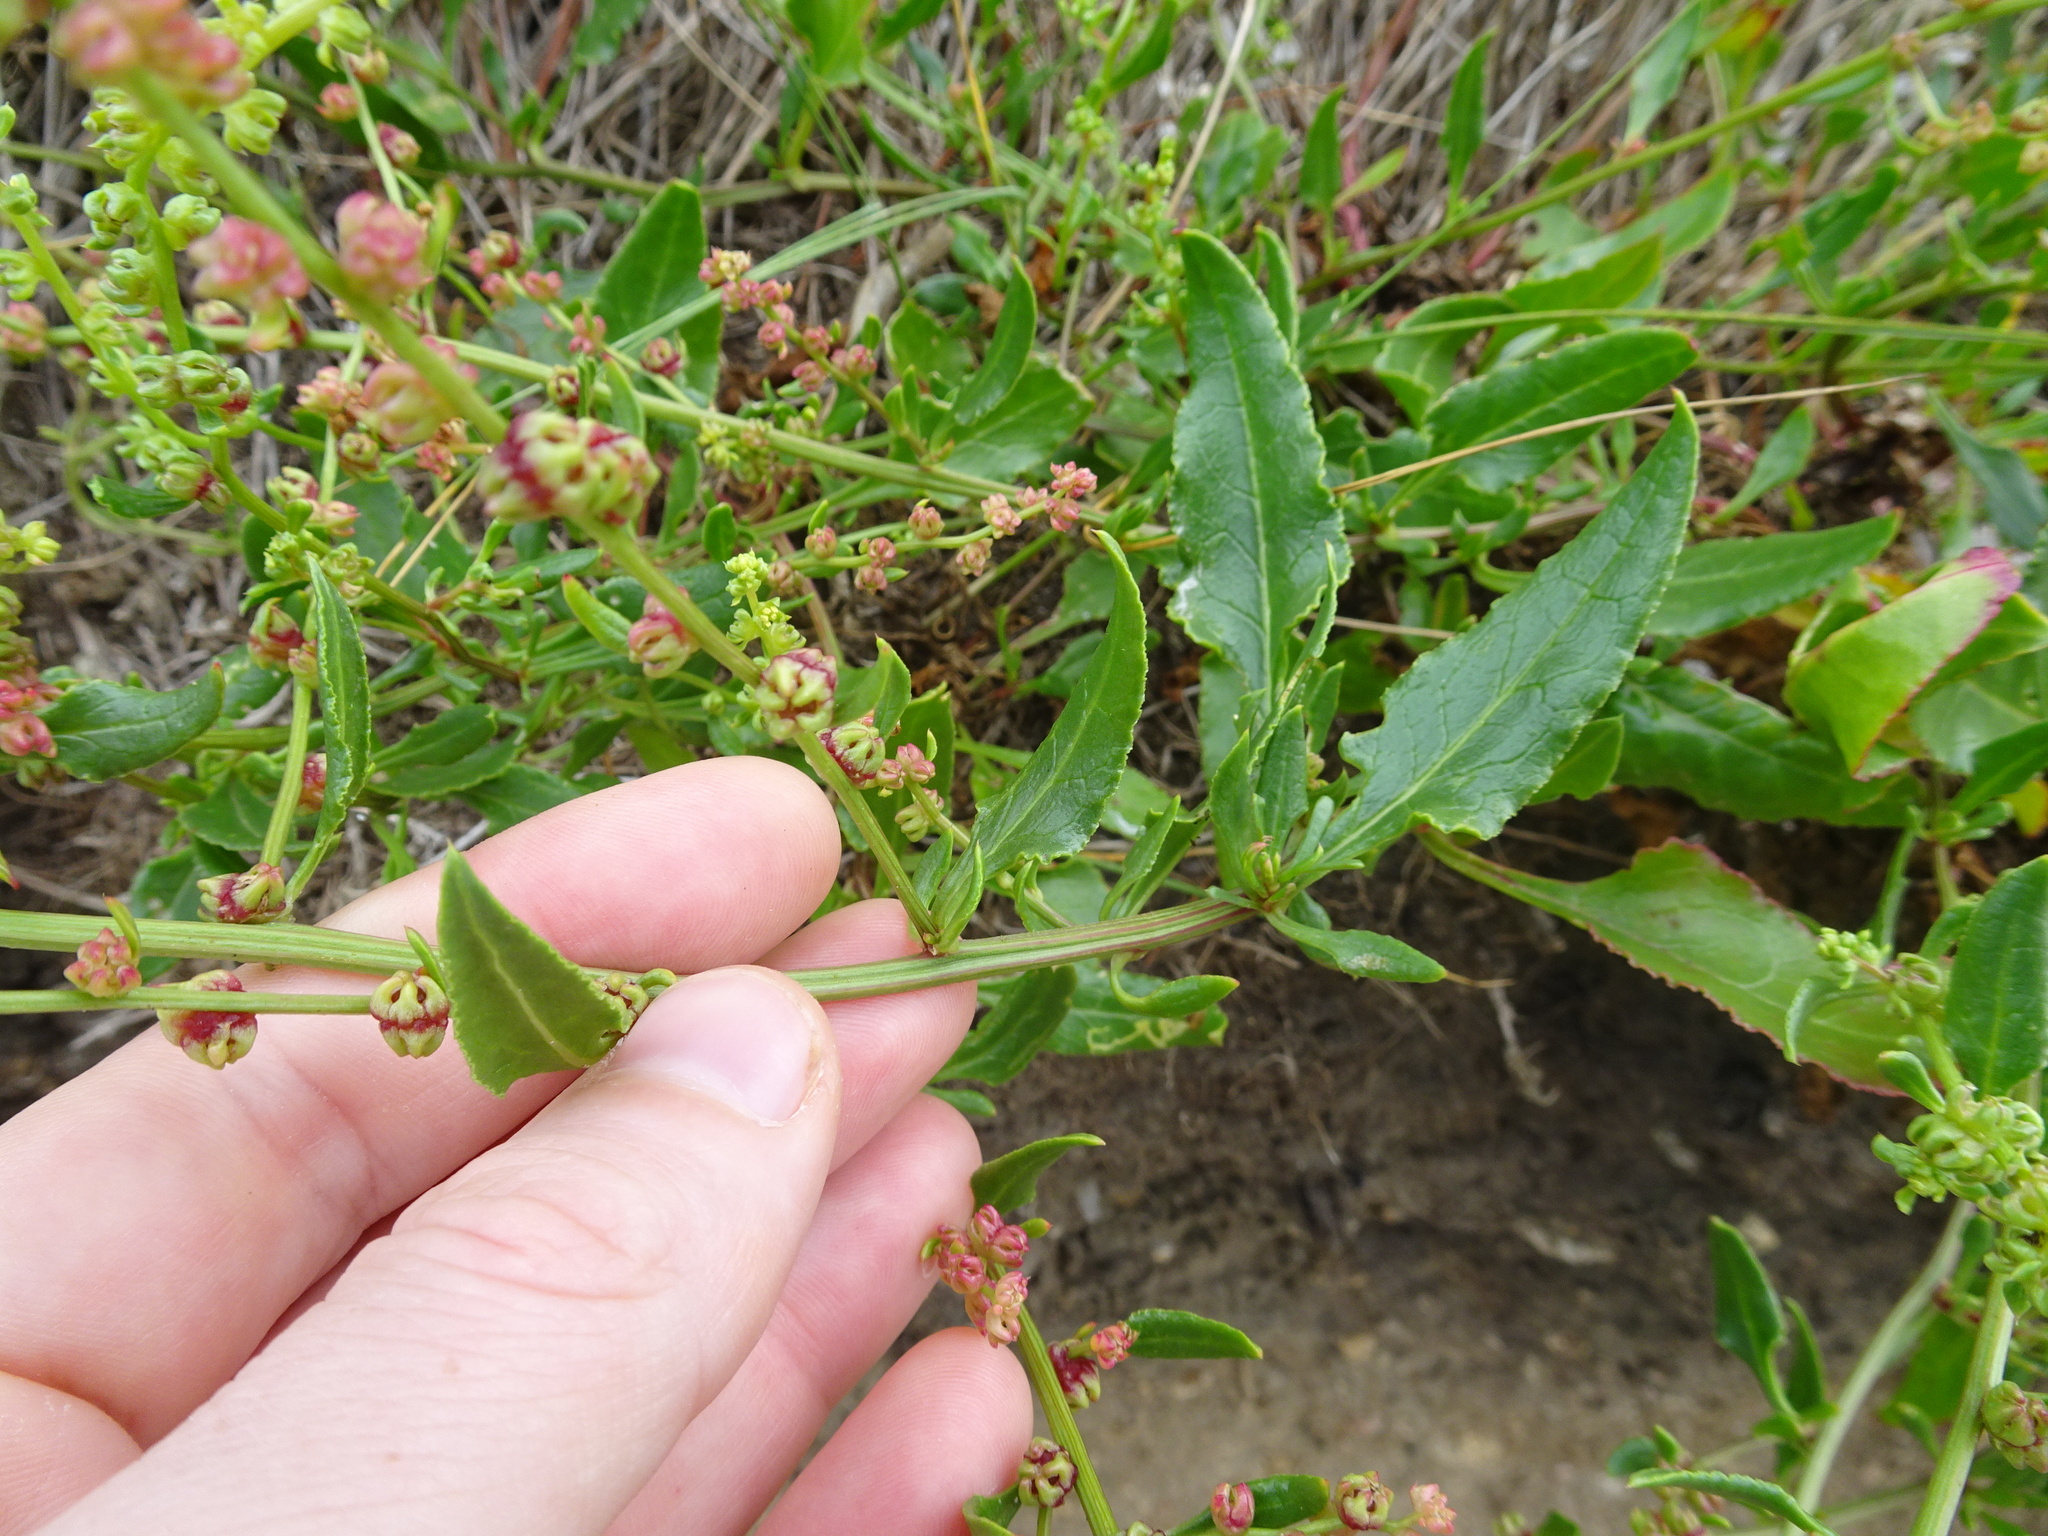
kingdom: Plantae
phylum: Tracheophyta
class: Magnoliopsida
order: Caryophyllales
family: Amaranthaceae
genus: Beta
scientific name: Beta vulgaris
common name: Beet
